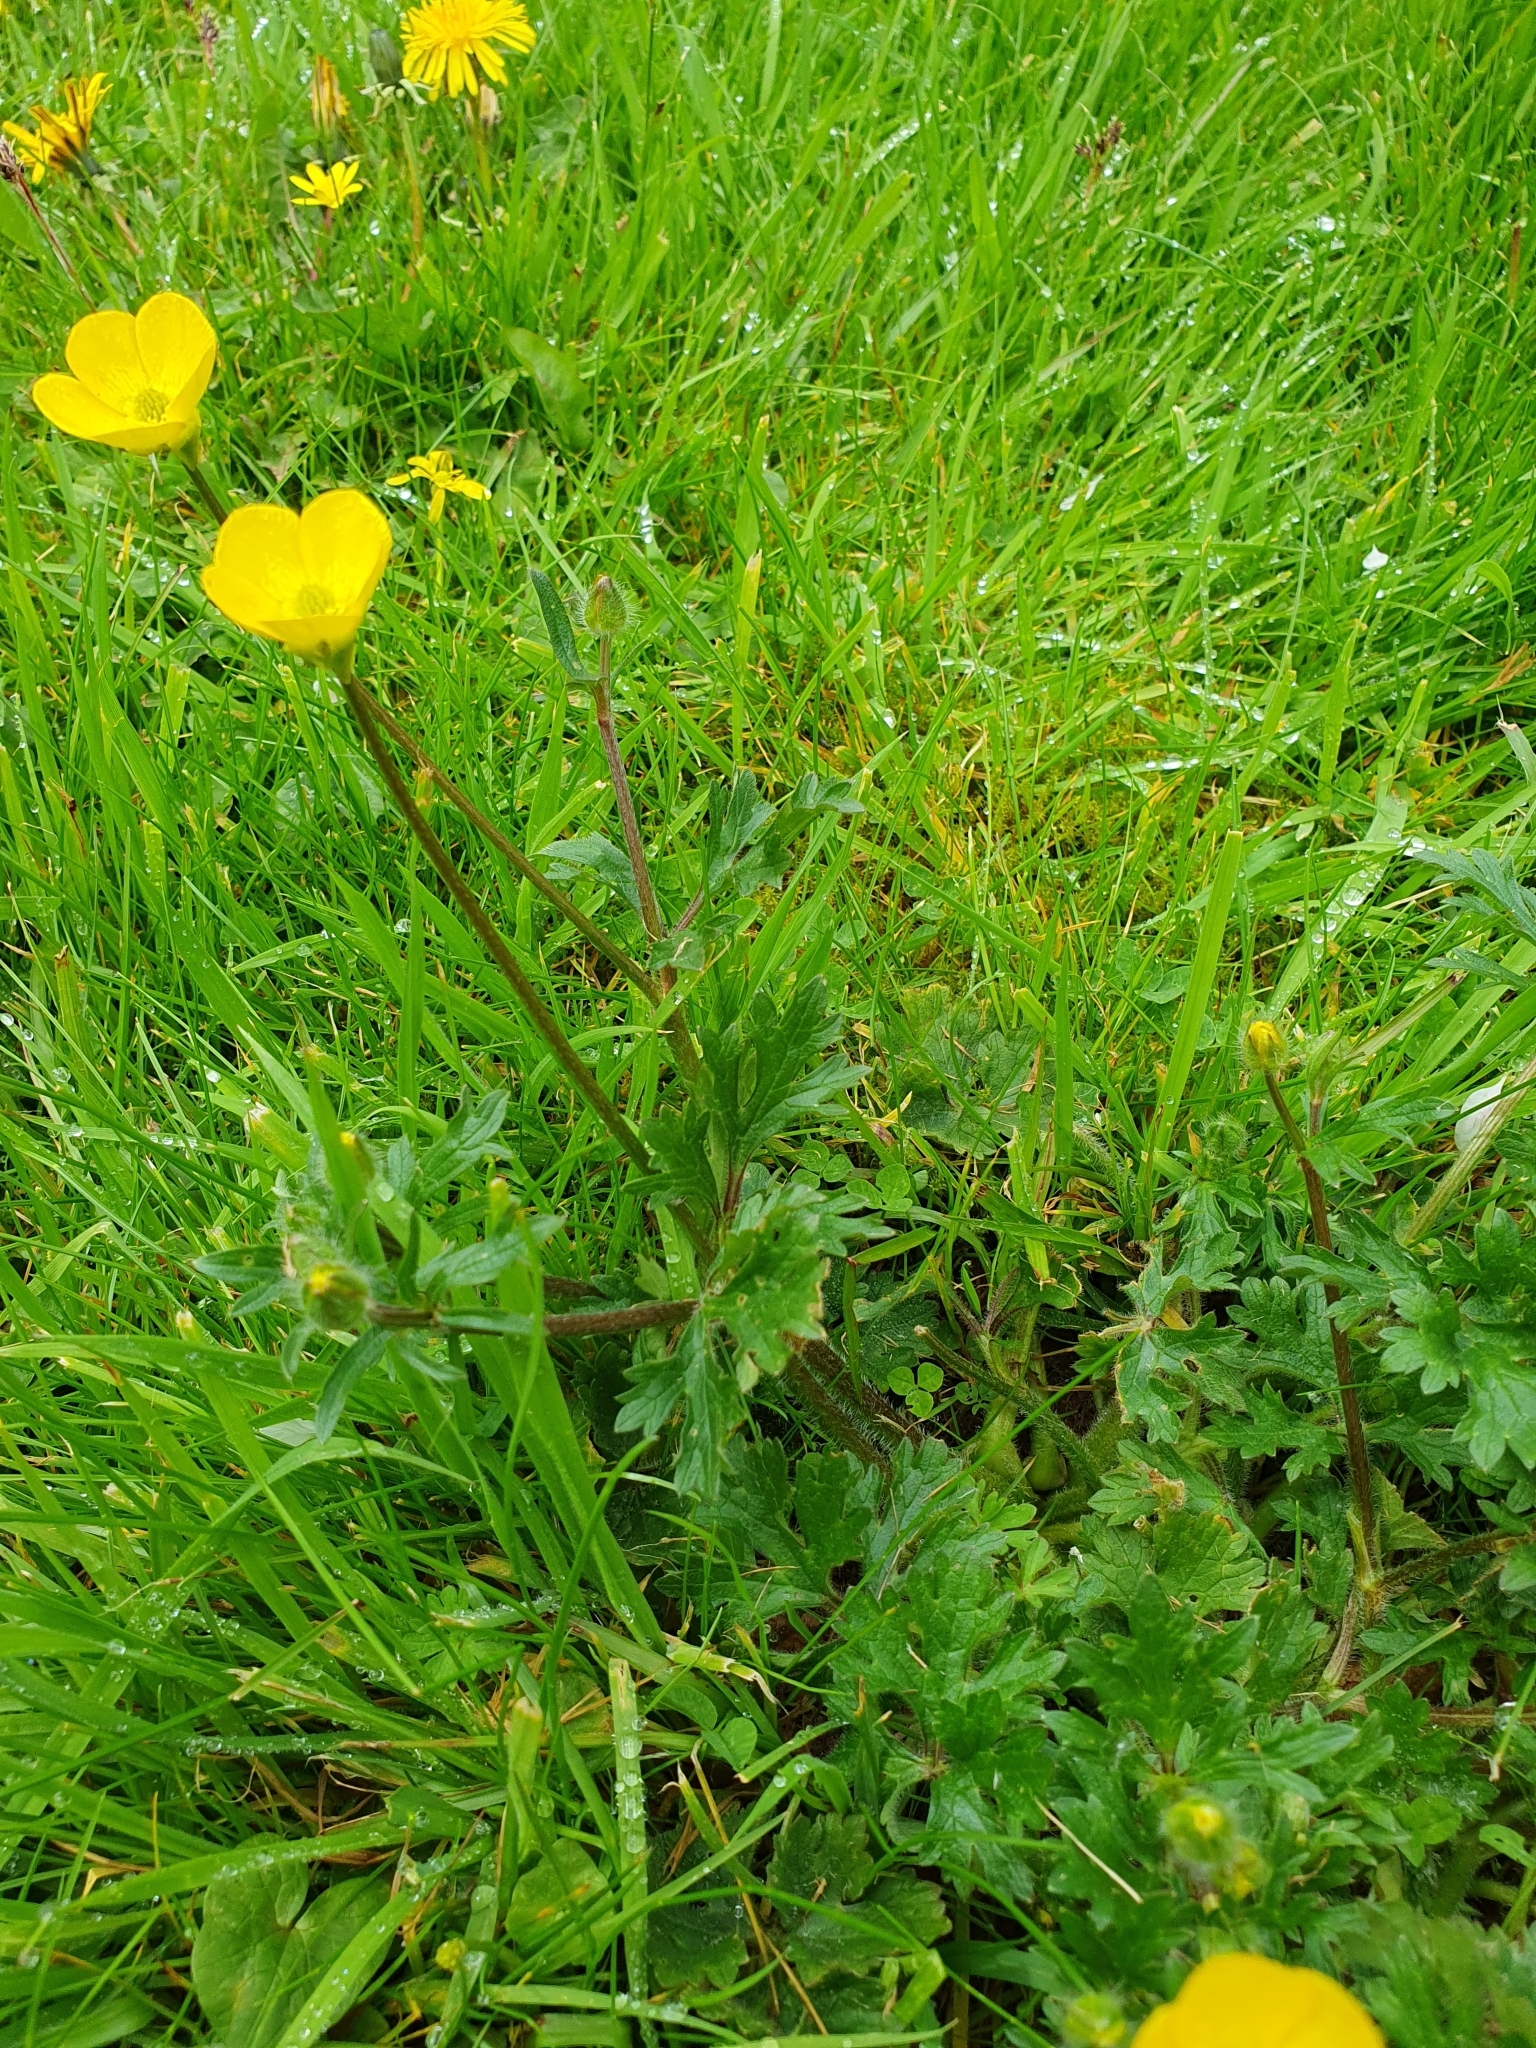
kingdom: Plantae
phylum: Tracheophyta
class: Magnoliopsida
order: Ranunculales
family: Ranunculaceae
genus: Ranunculus
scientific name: Ranunculus bulbosus
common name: Bulbous buttercup
